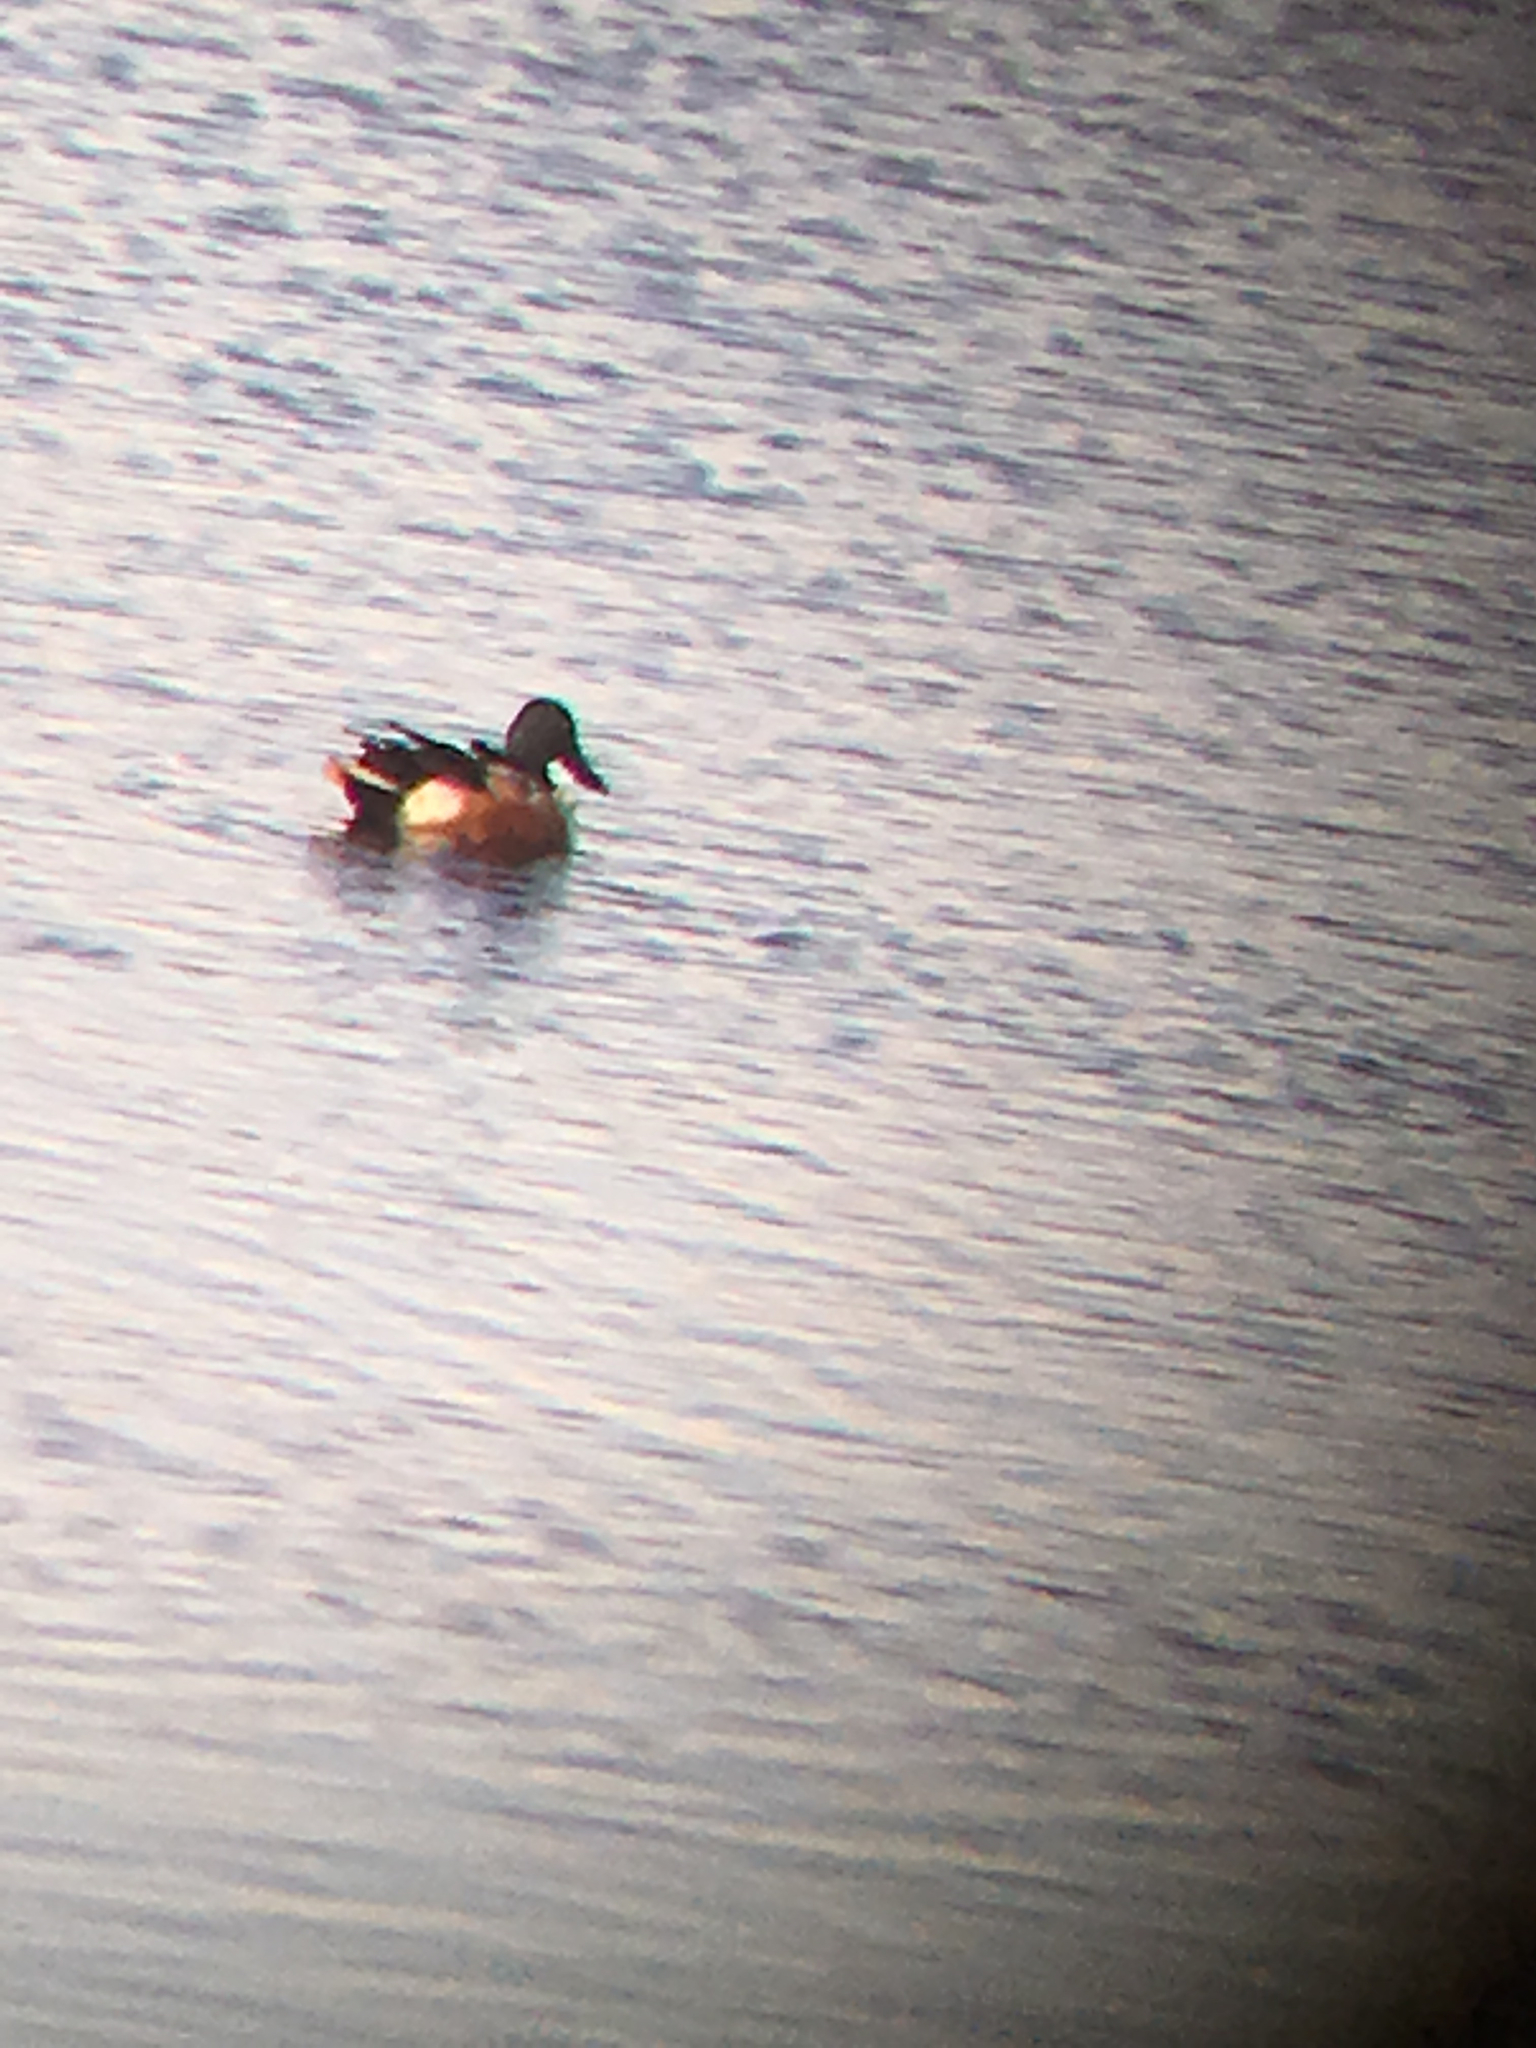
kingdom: Animalia
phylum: Chordata
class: Aves
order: Anseriformes
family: Anatidae
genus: Spatula
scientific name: Spatula clypeata
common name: Northern shoveler
